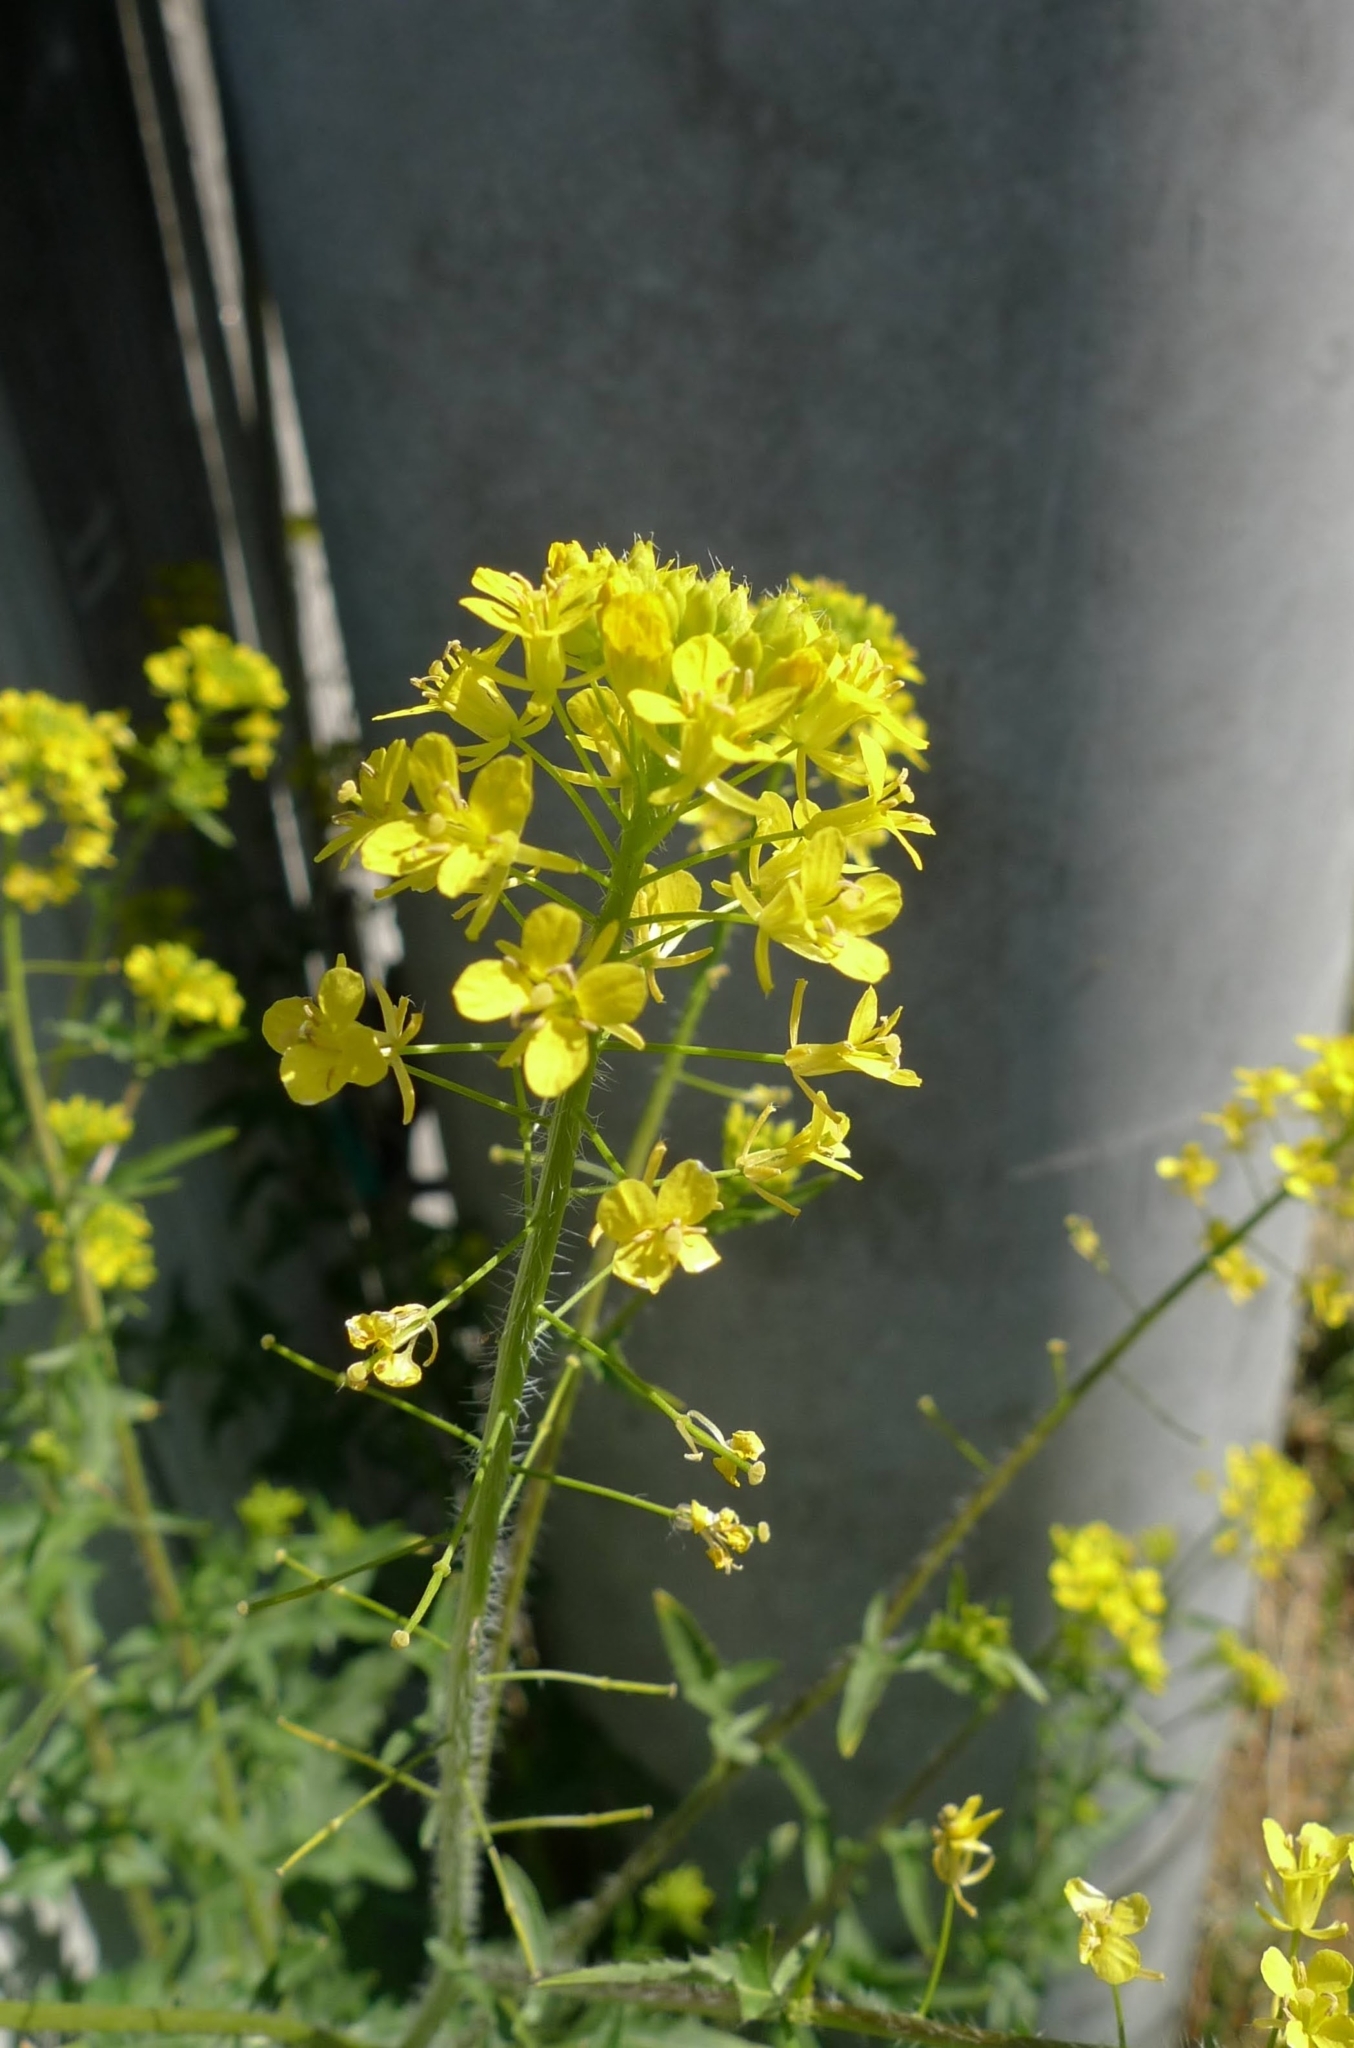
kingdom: Plantae
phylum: Tracheophyta
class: Magnoliopsida
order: Brassicales
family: Brassicaceae
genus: Sisymbrium
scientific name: Sisymbrium loeselii
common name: False london-rocket
